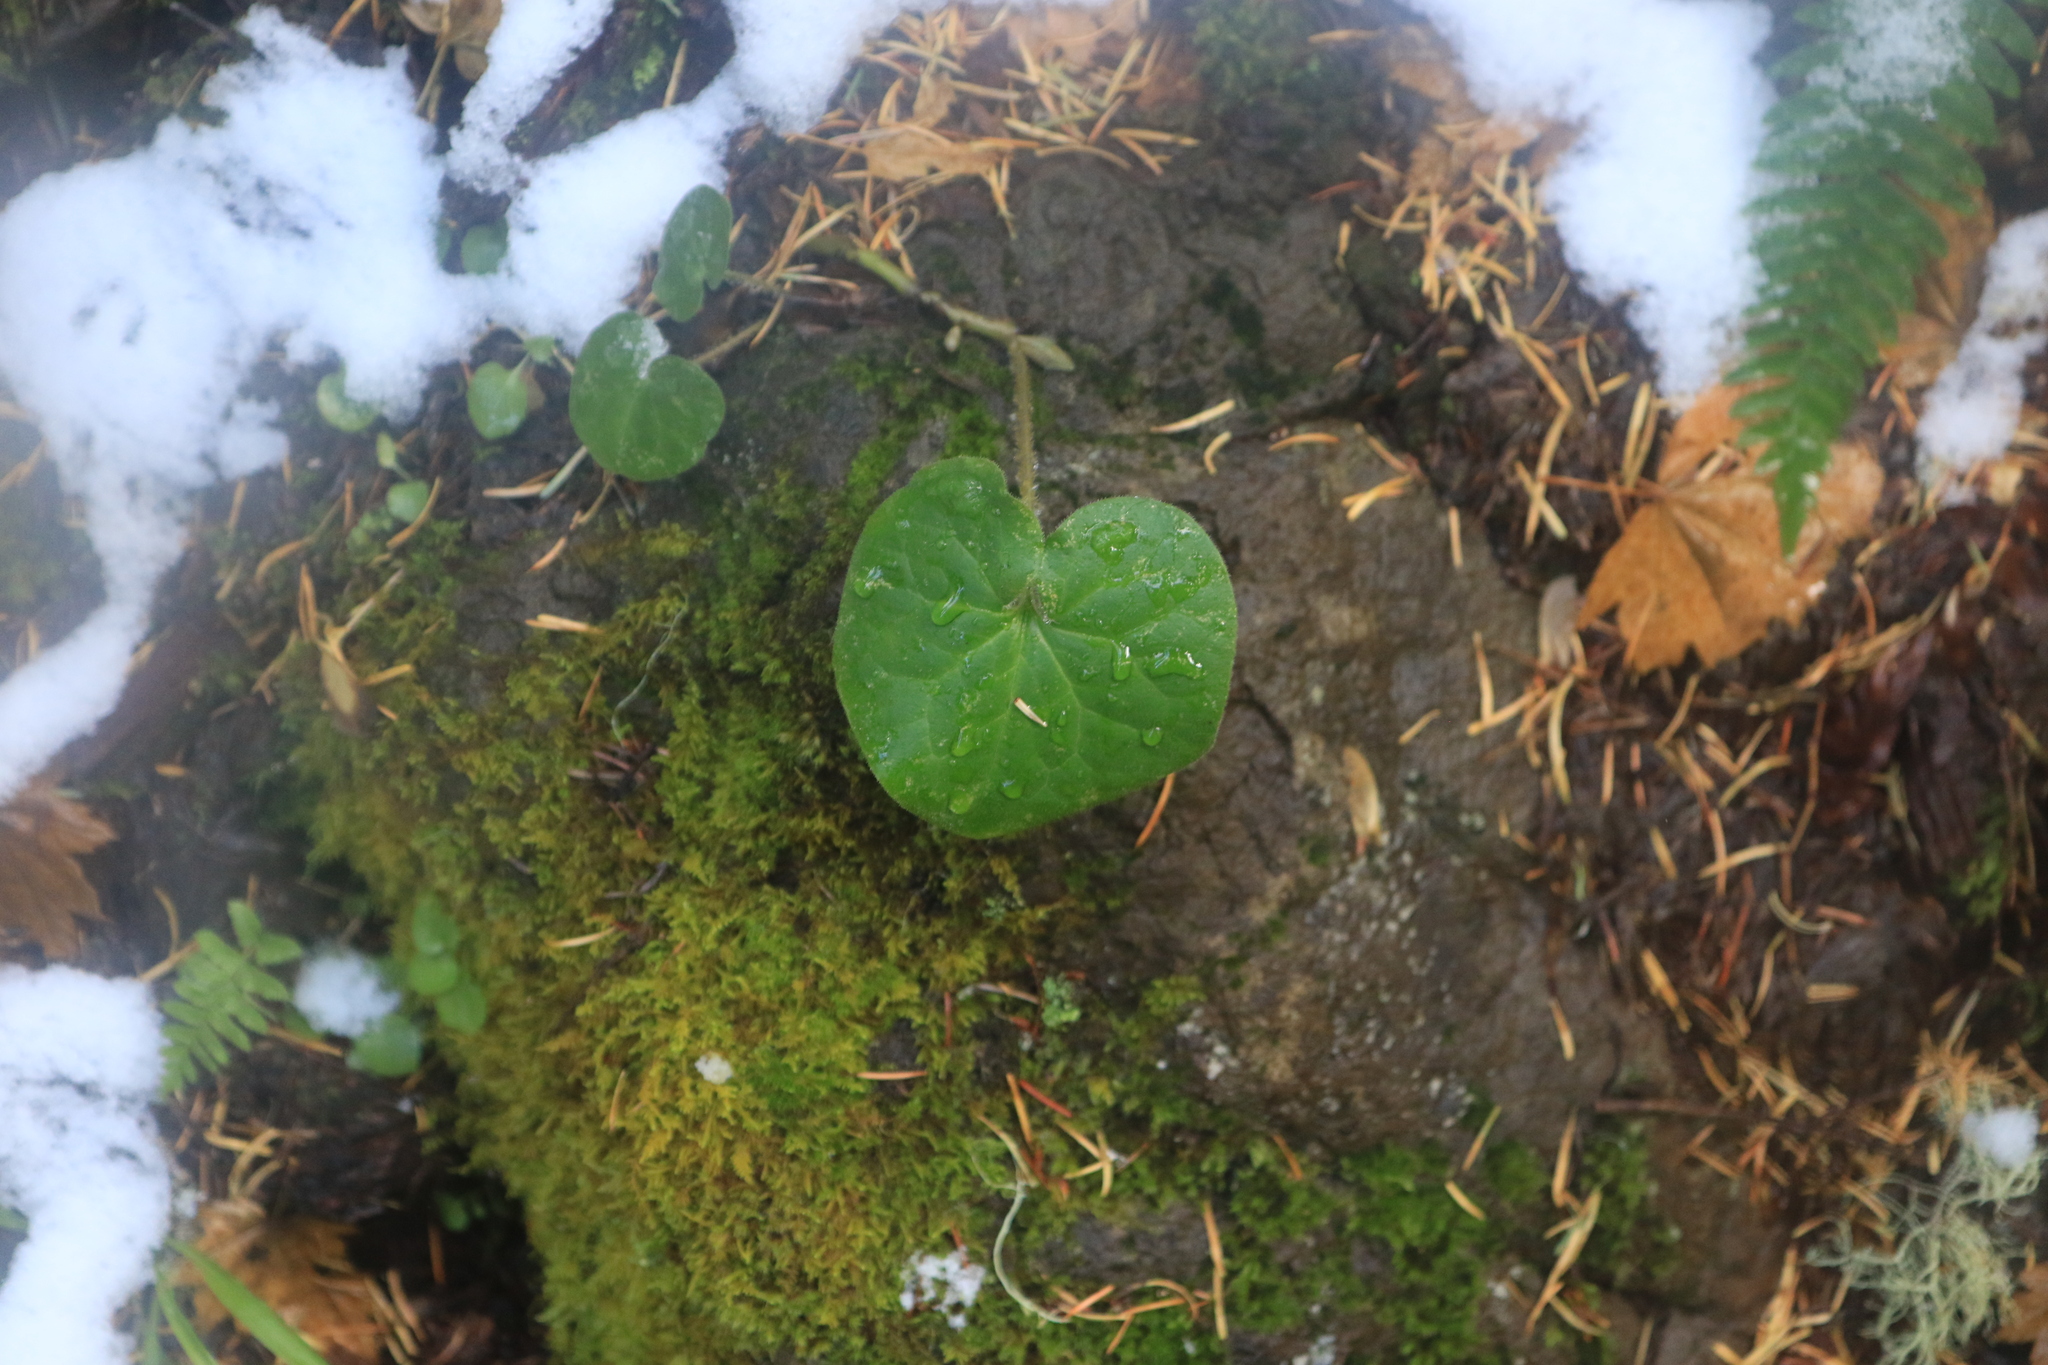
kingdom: Plantae
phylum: Tracheophyta
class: Magnoliopsida
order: Piperales
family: Aristolochiaceae
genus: Asarum
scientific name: Asarum caudatum
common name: Wild ginger
